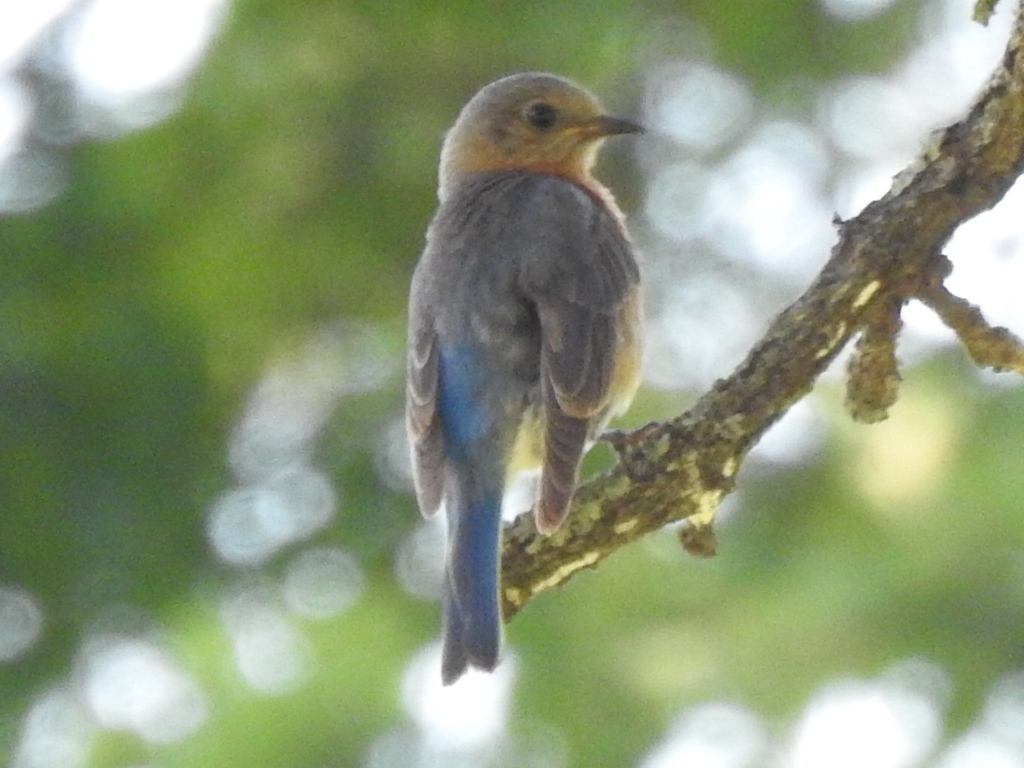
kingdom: Animalia
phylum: Chordata
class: Aves
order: Passeriformes
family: Turdidae
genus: Sialia
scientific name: Sialia sialis
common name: Eastern bluebird
